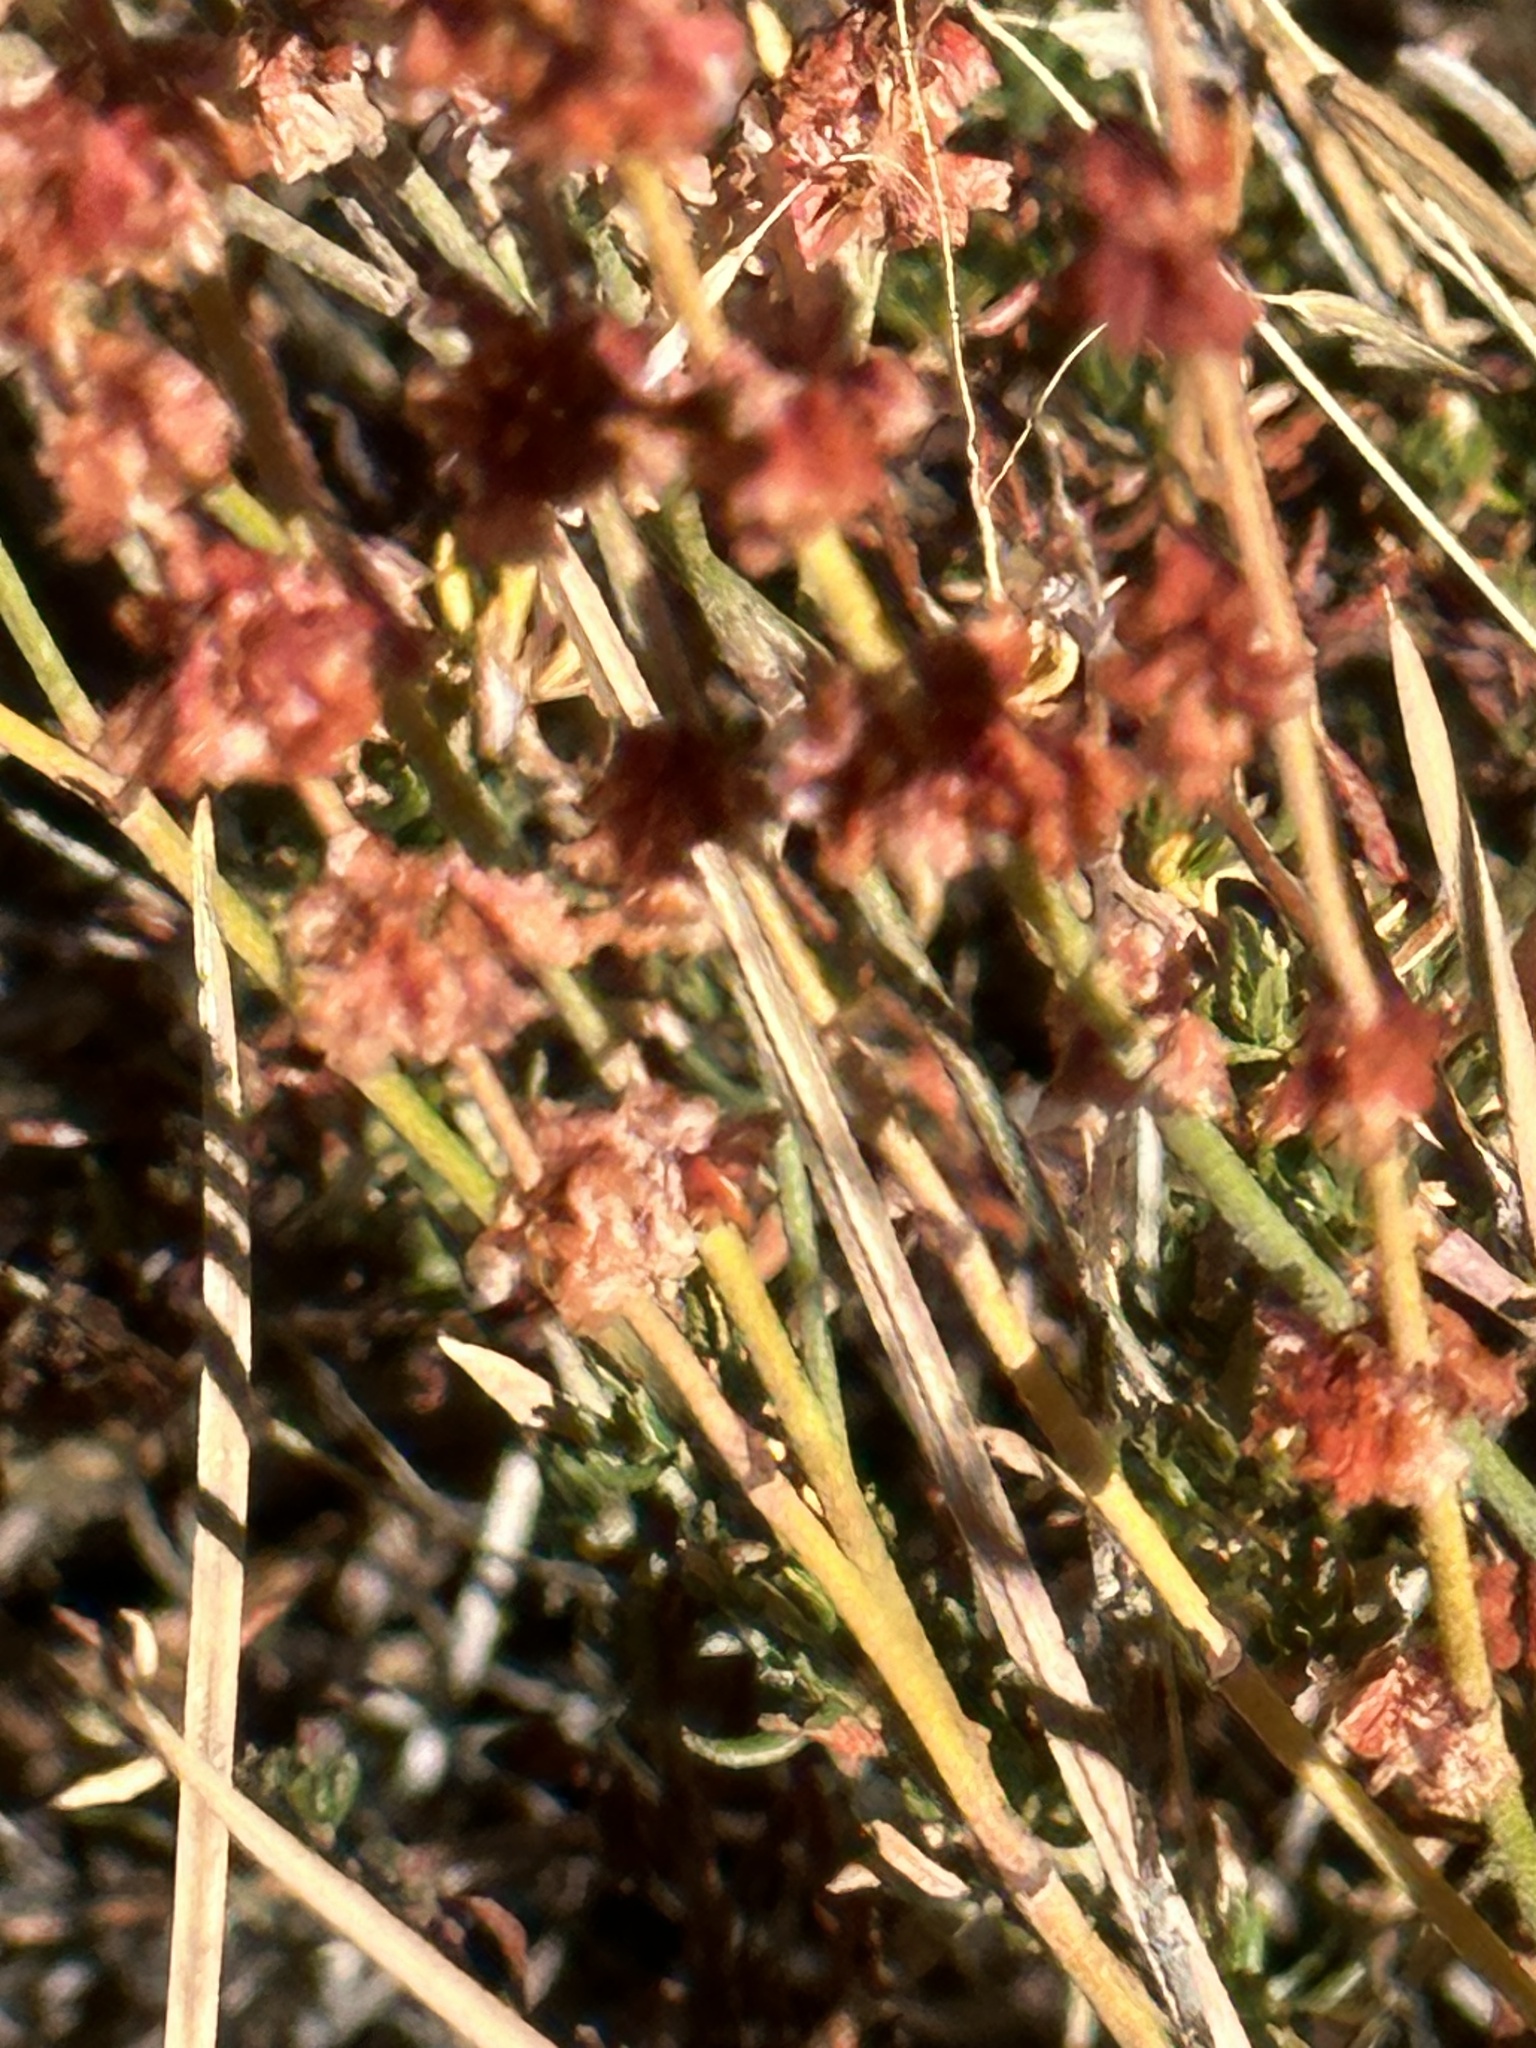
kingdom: Plantae
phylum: Tracheophyta
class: Magnoliopsida
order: Caryophyllales
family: Polygonaceae
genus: Eriogonum
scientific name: Eriogonum wrightii
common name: Bastard-sage
